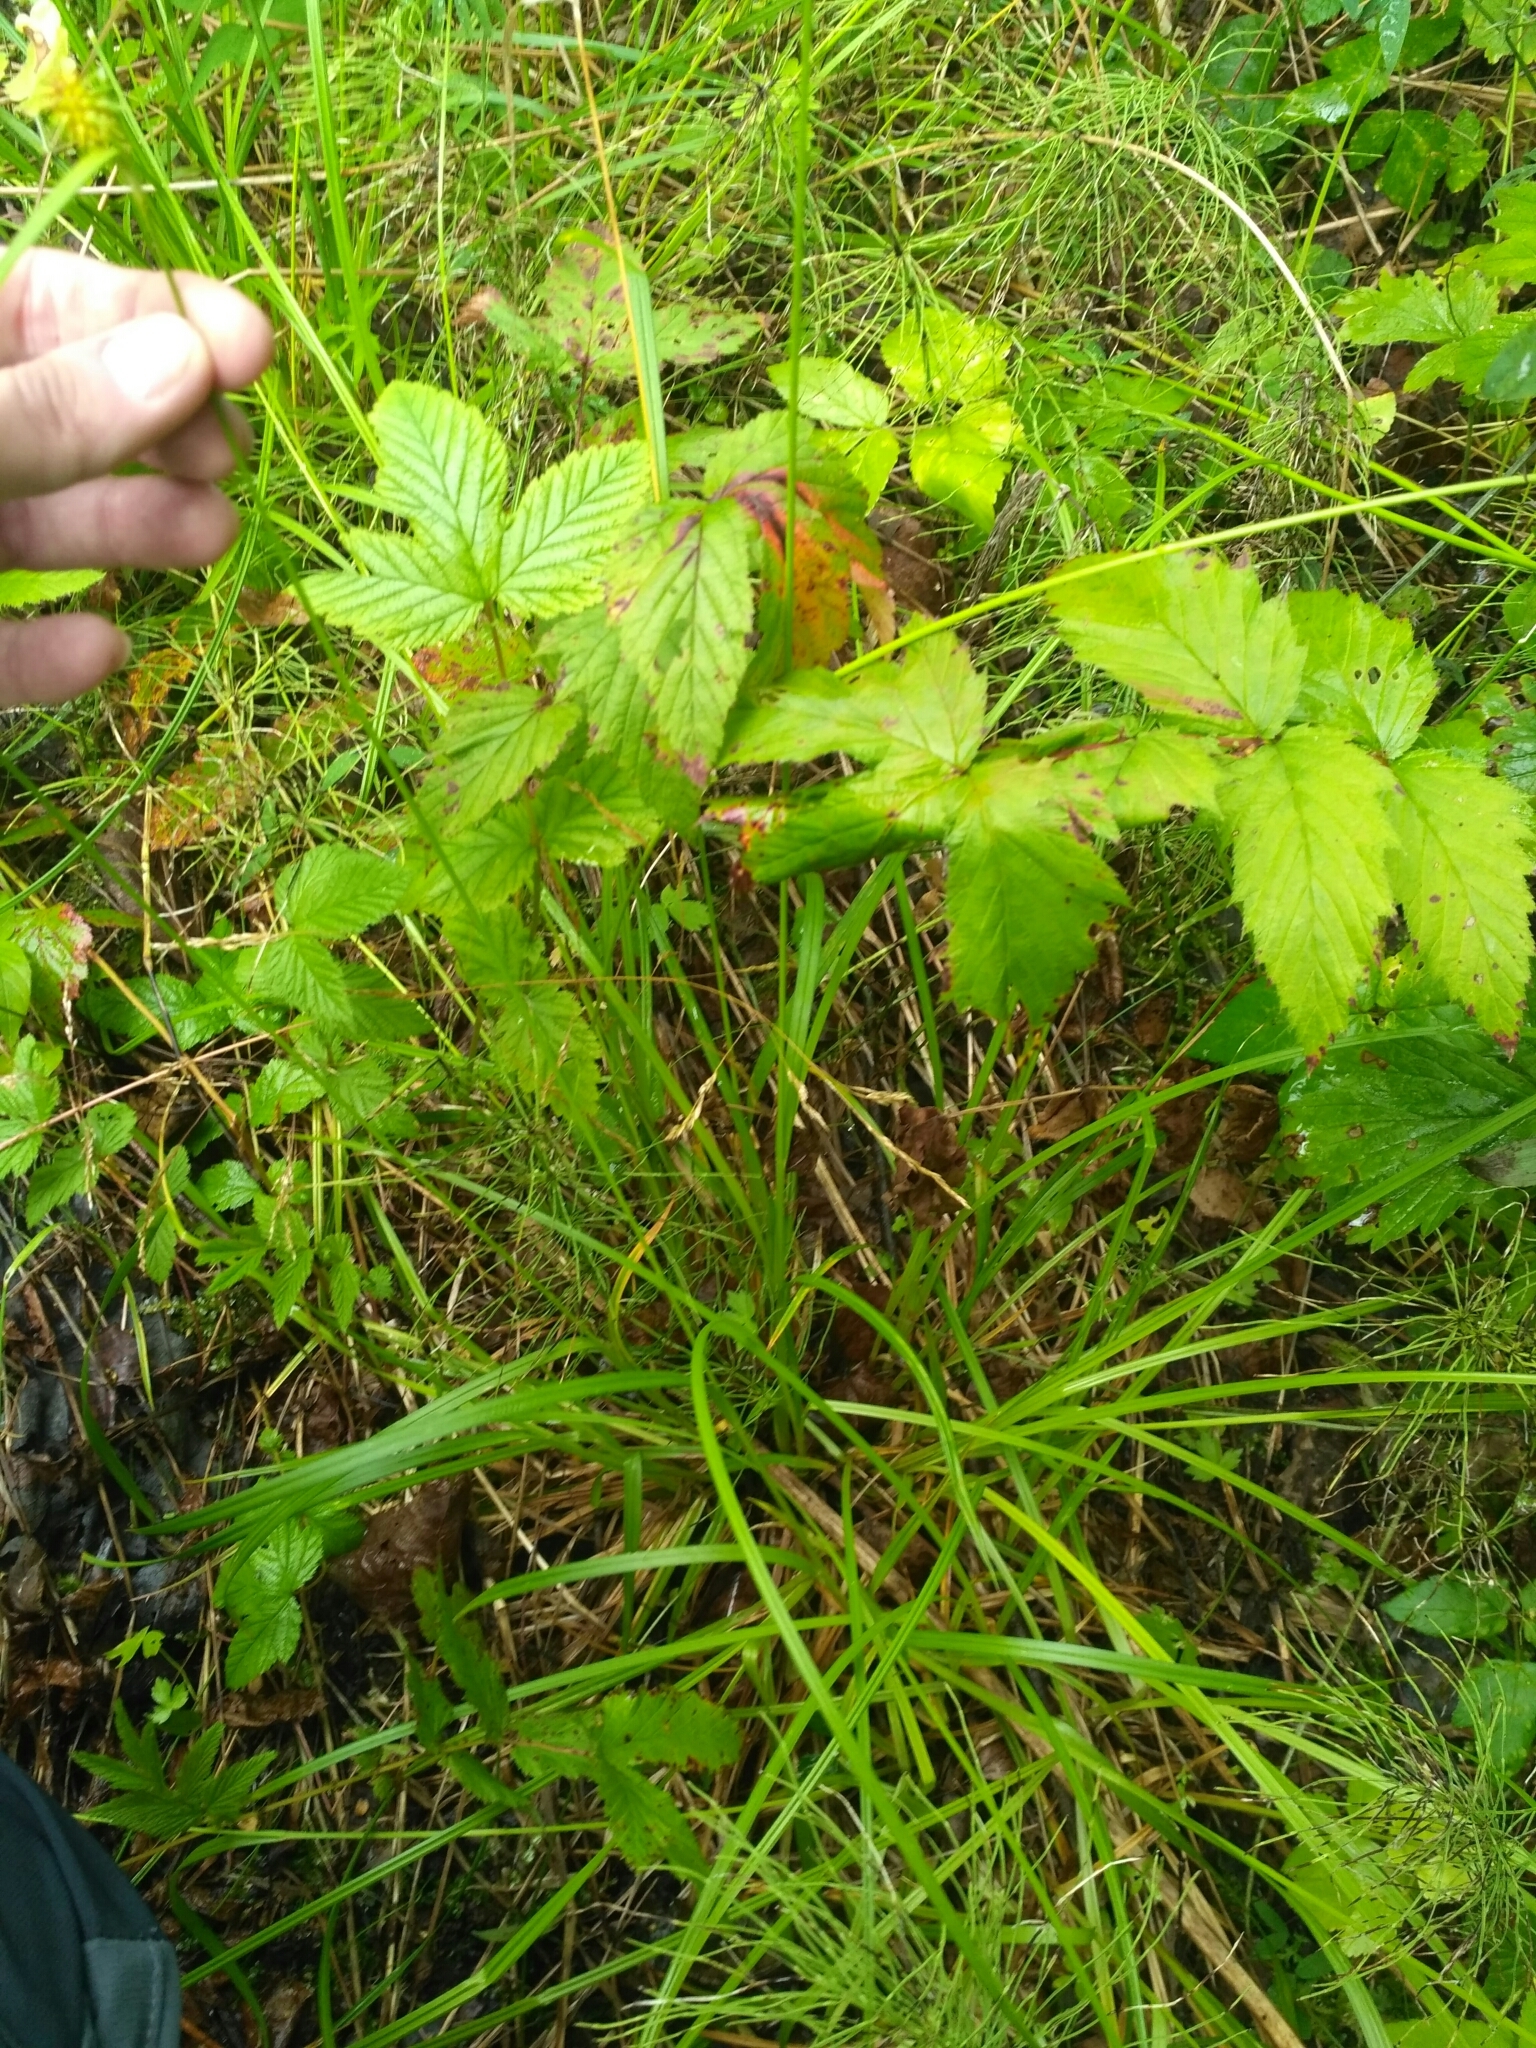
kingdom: Plantae
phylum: Tracheophyta
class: Liliopsida
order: Poales
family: Cyperaceae
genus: Carex
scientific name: Carex flava
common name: Large yellow-sedge
